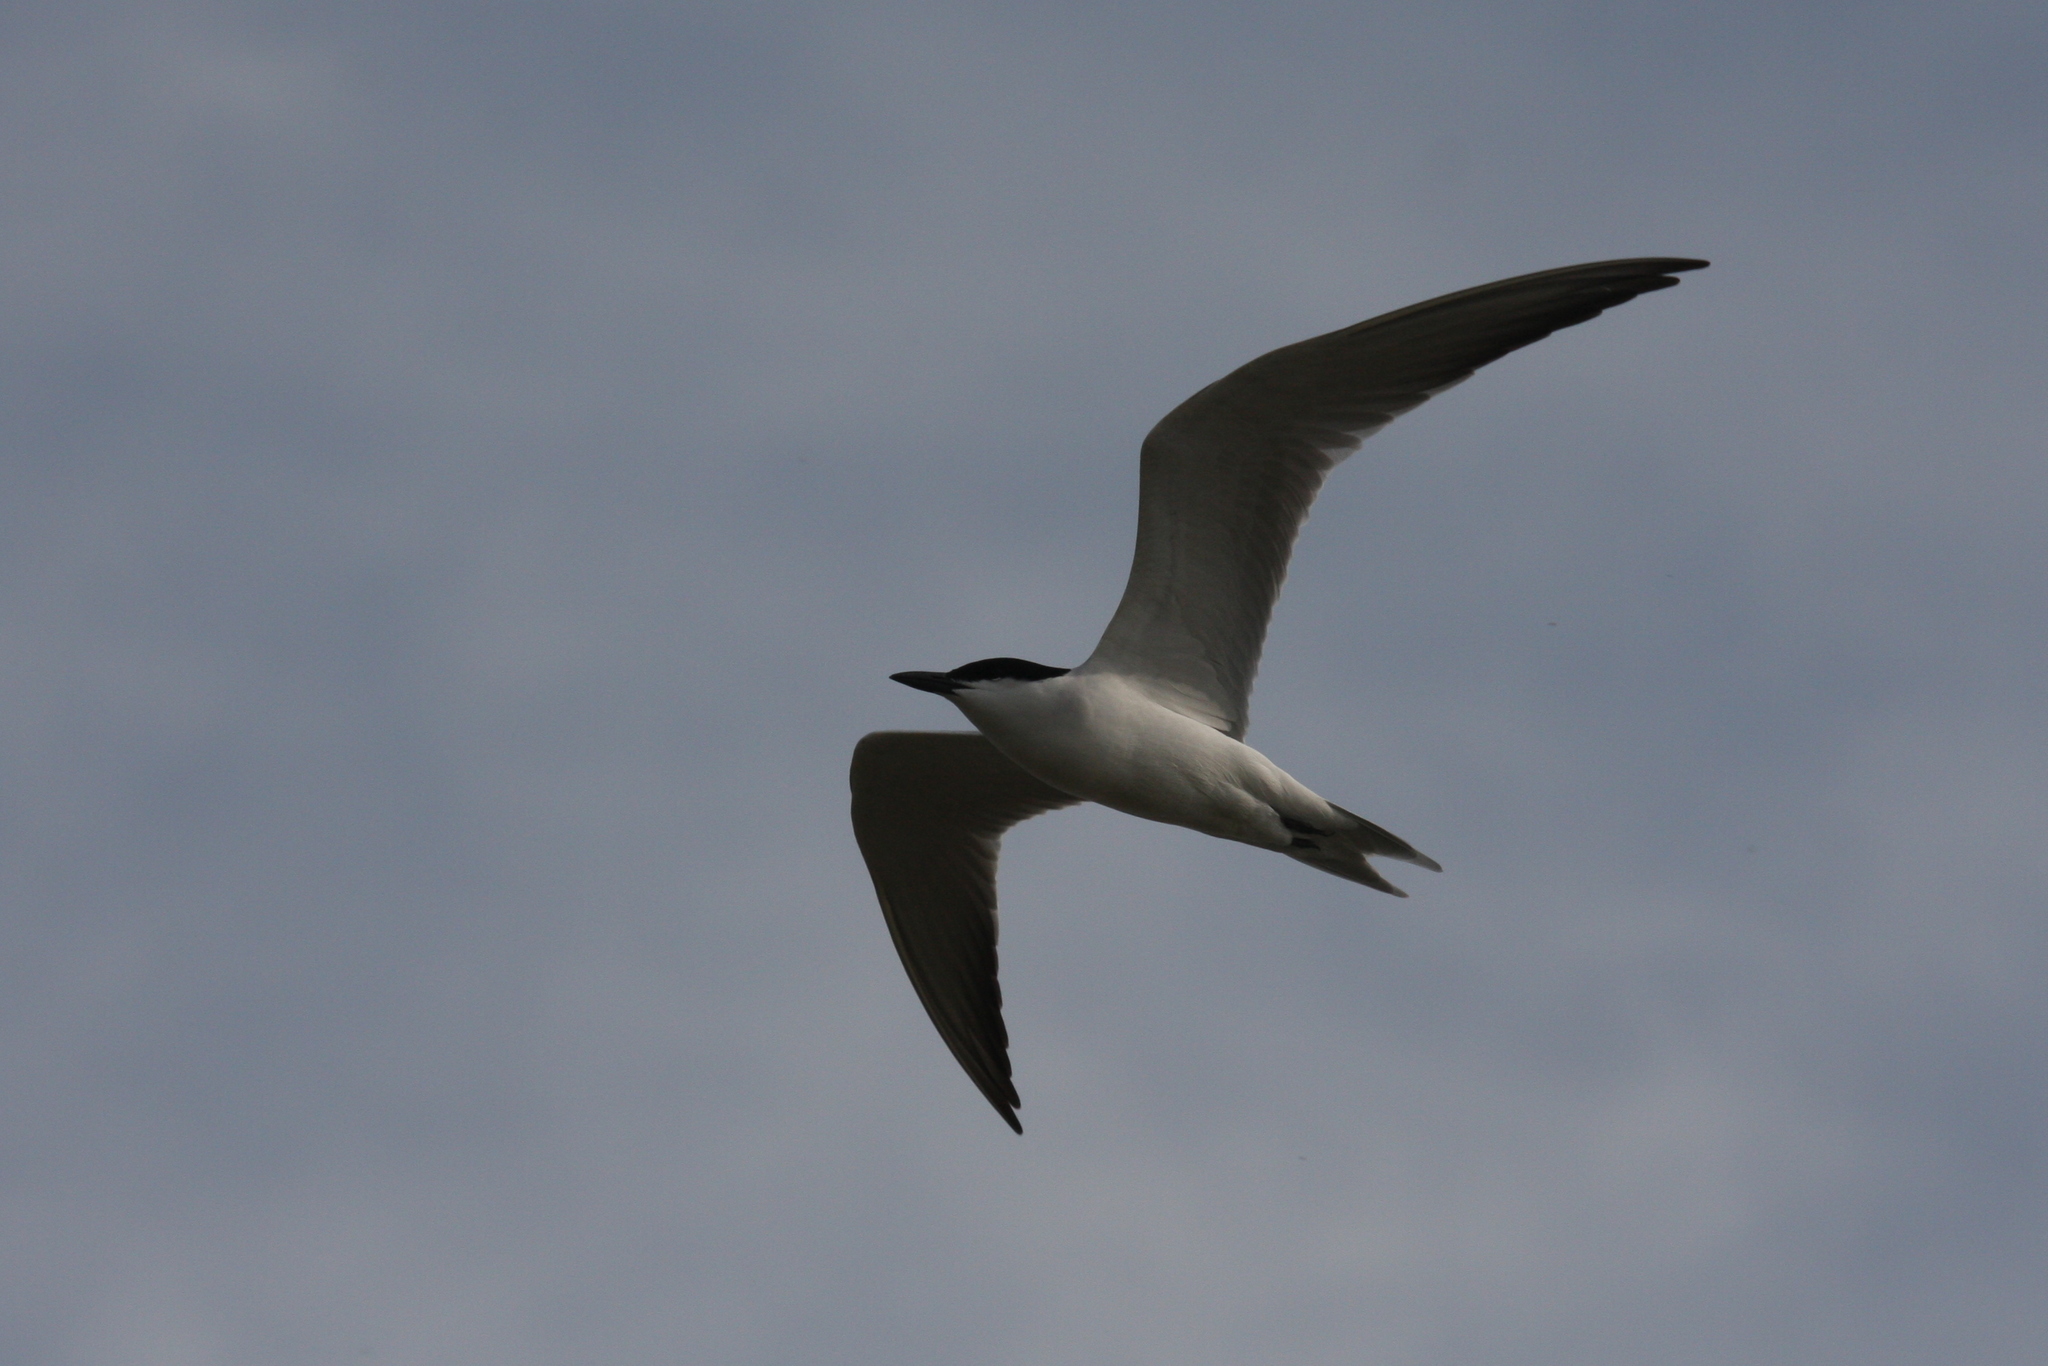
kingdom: Animalia
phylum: Chordata
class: Aves
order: Charadriiformes
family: Laridae
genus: Gelochelidon
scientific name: Gelochelidon nilotica
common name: Gull-billed tern
